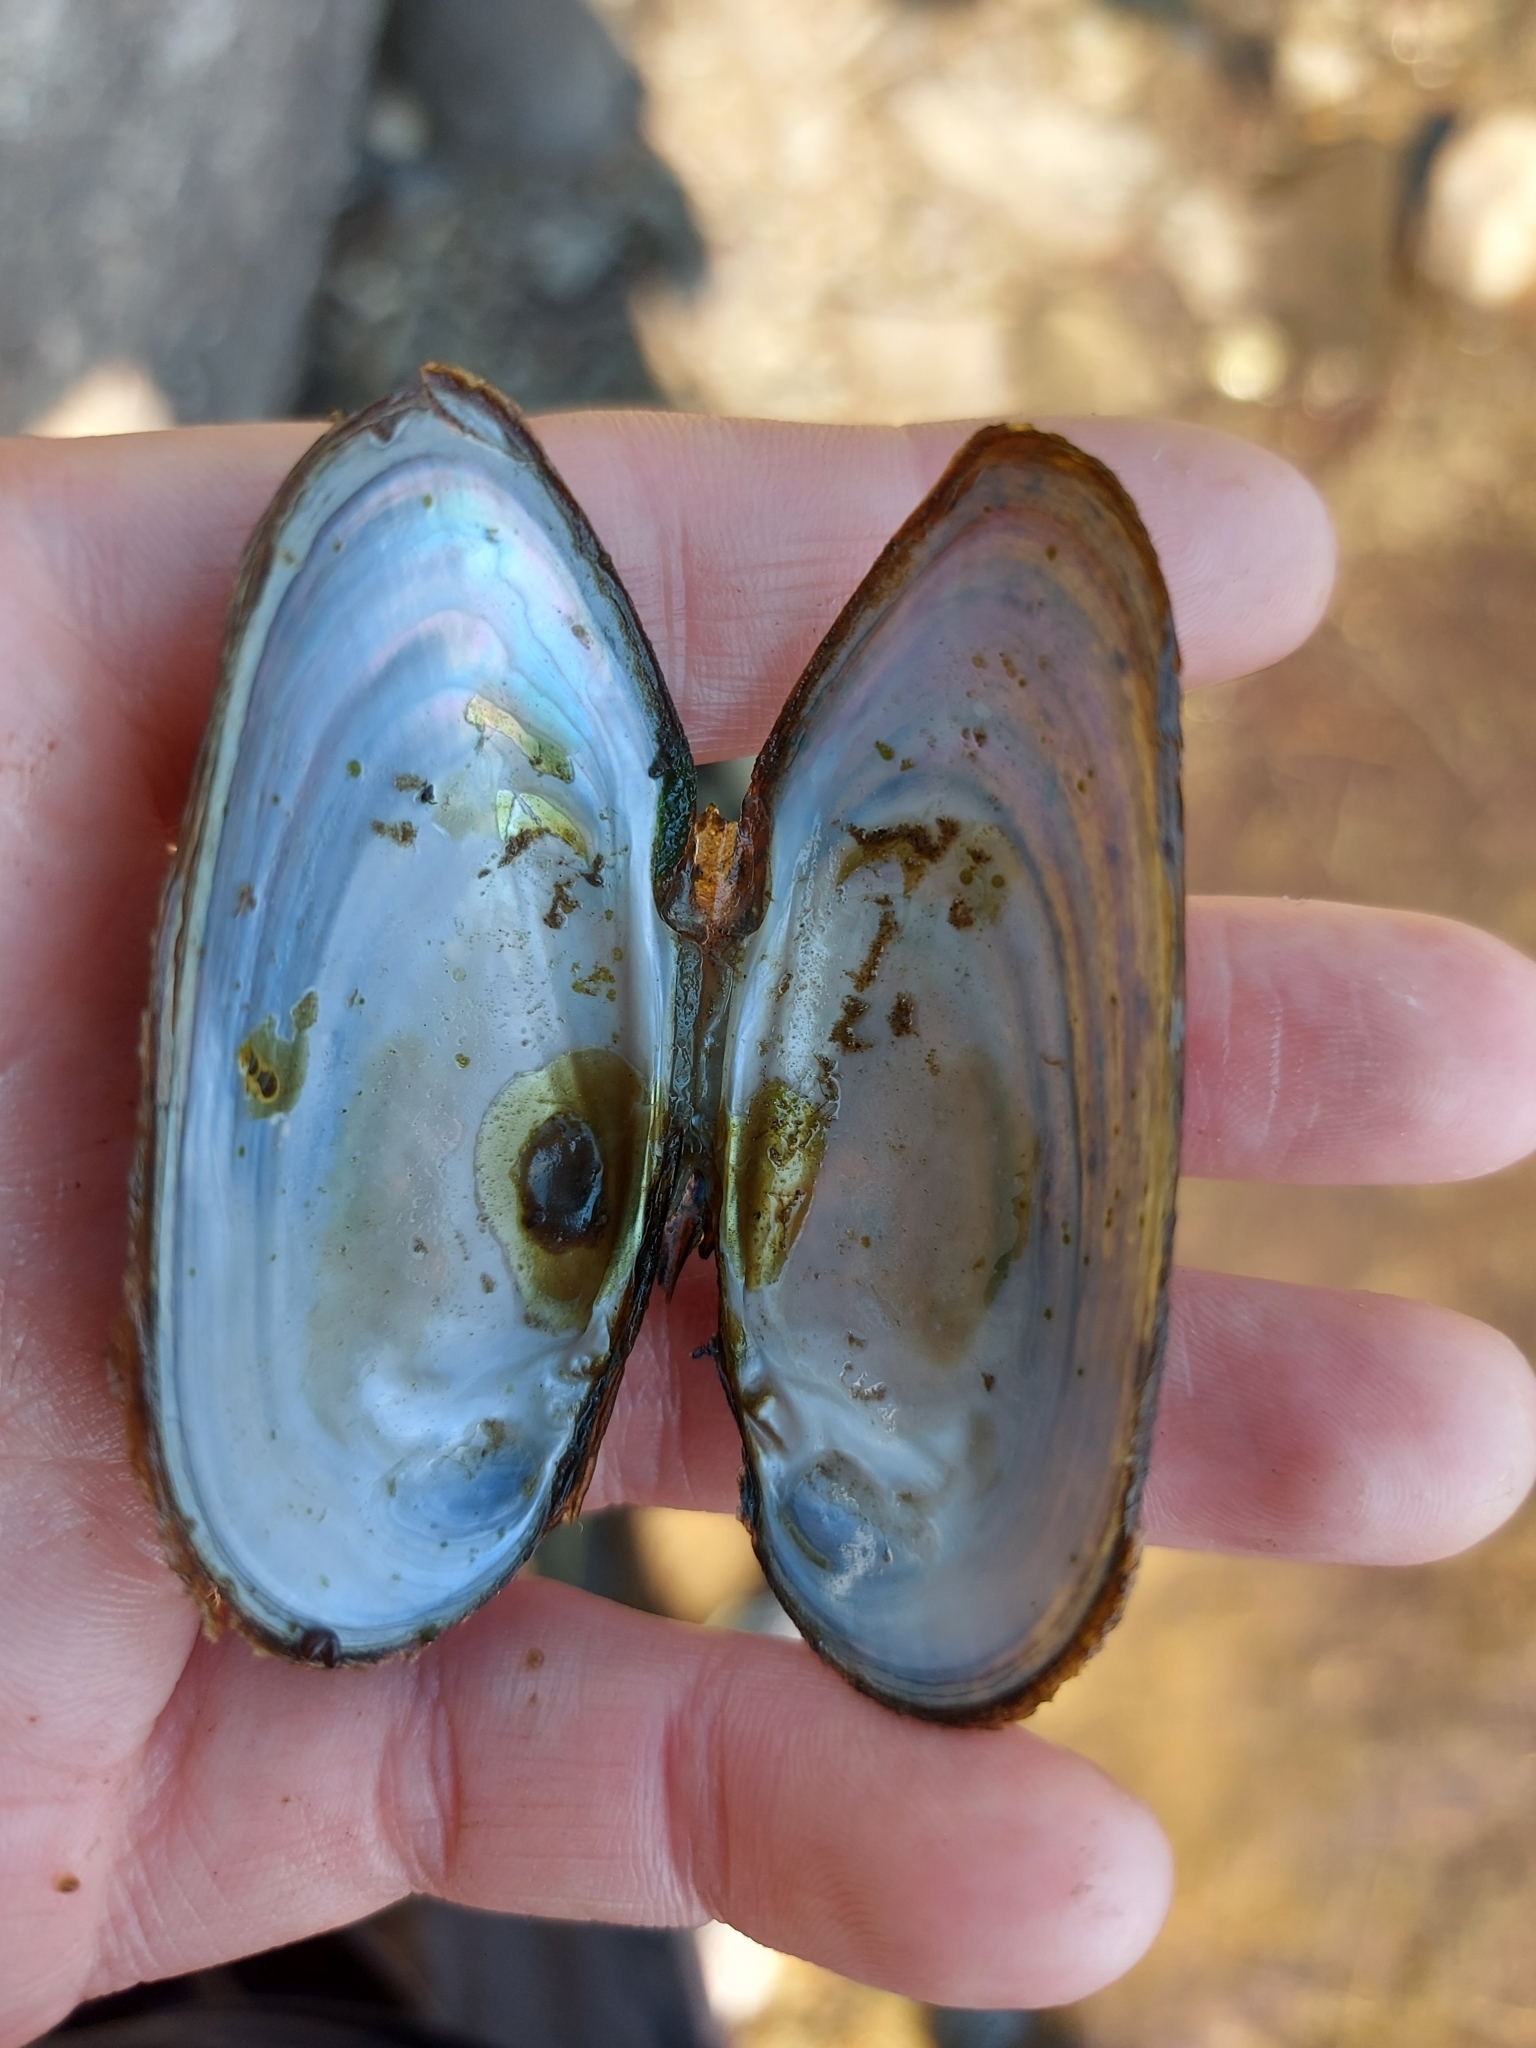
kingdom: Animalia
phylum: Mollusca
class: Bivalvia
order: Unionida
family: Margaritiferidae
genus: Margaritifera
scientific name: Margaritifera margaritifera
